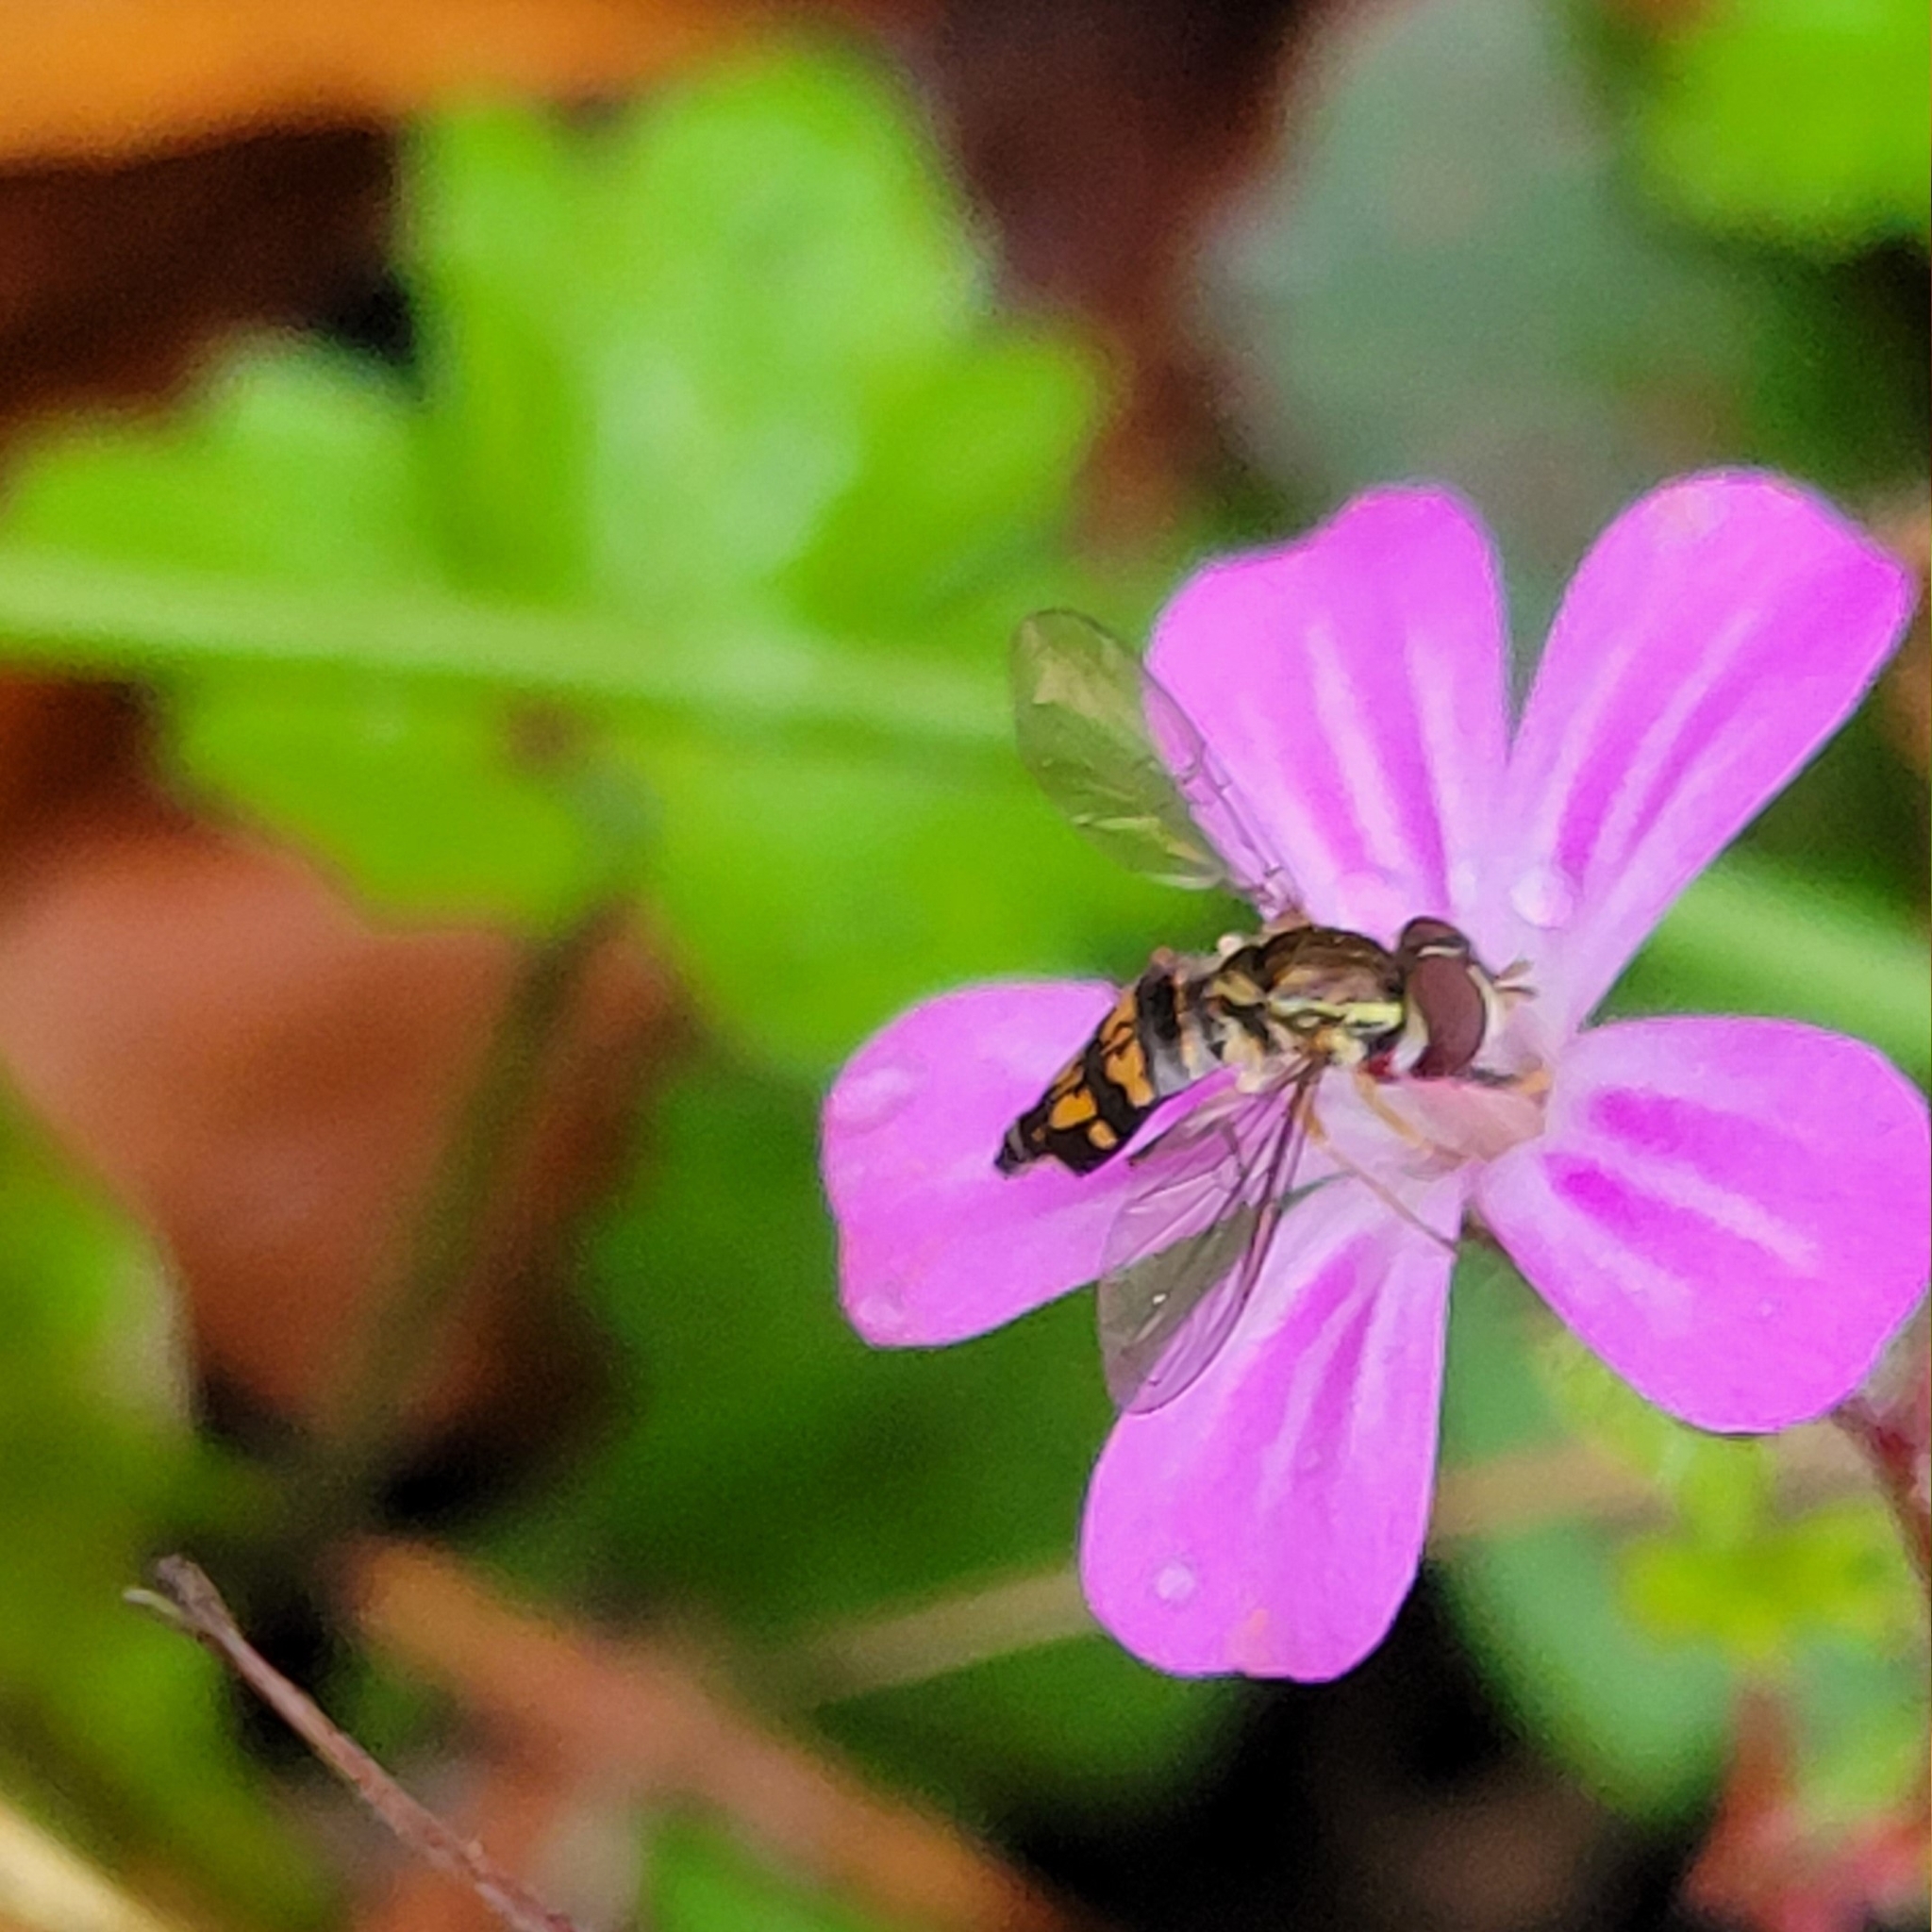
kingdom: Animalia
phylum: Arthropoda
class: Insecta
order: Diptera
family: Syrphidae
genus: Toxomerus
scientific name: Toxomerus occidentalis
